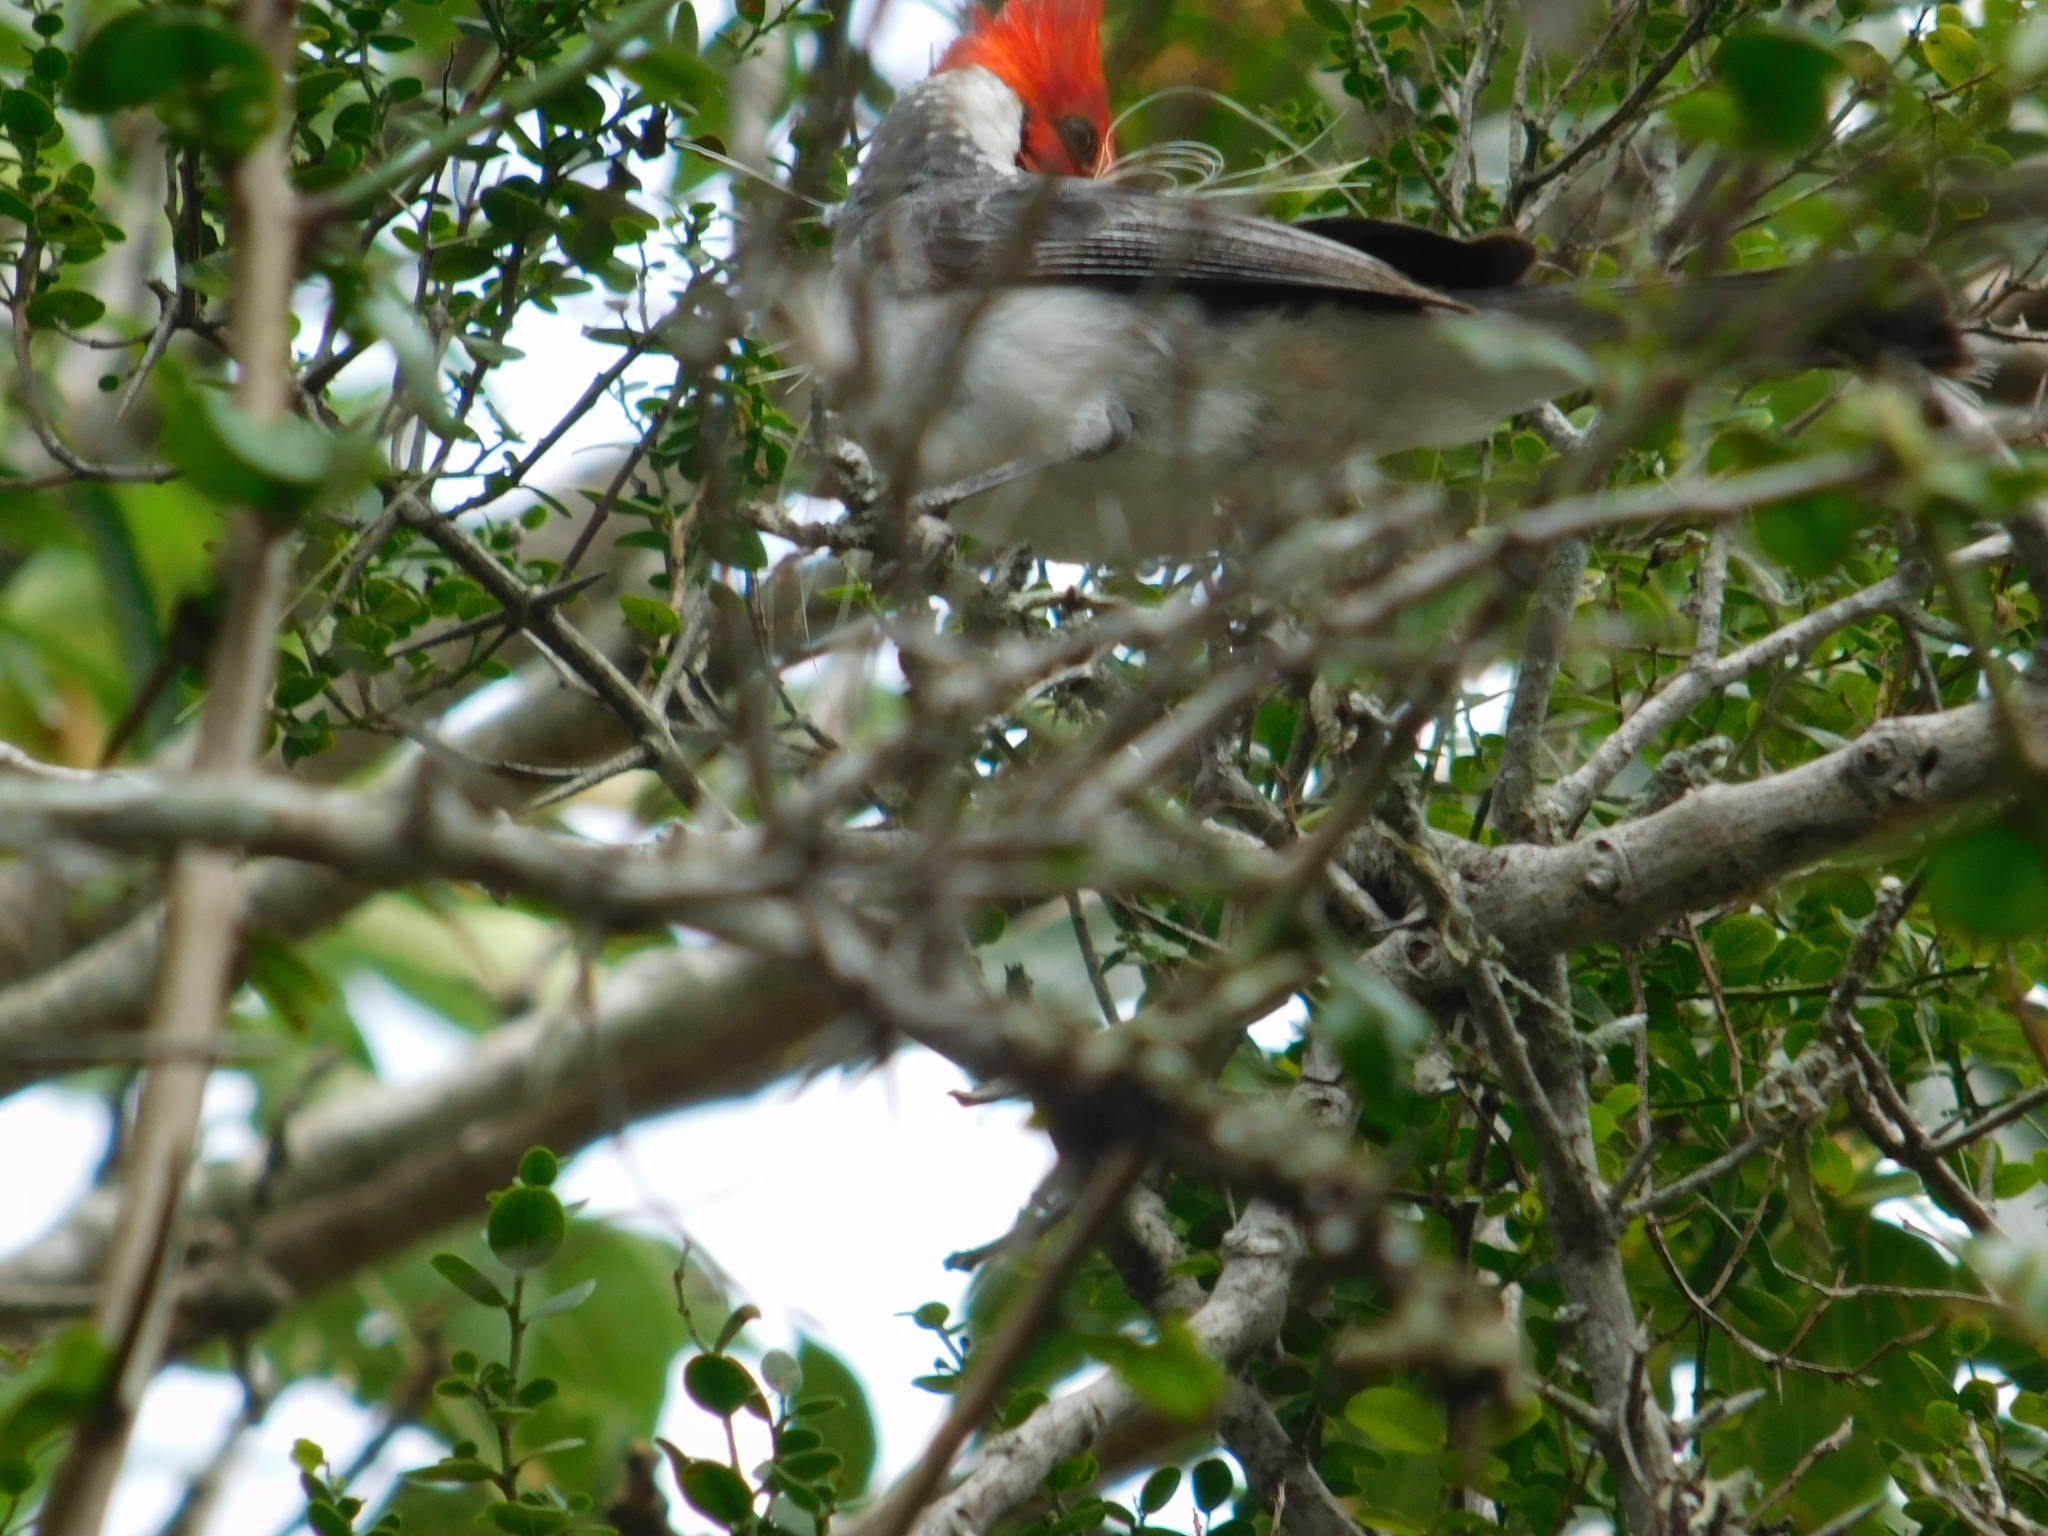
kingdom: Animalia
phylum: Chordata
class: Aves
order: Passeriformes
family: Thraupidae
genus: Paroaria
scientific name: Paroaria coronata
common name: Red-crested cardinal
